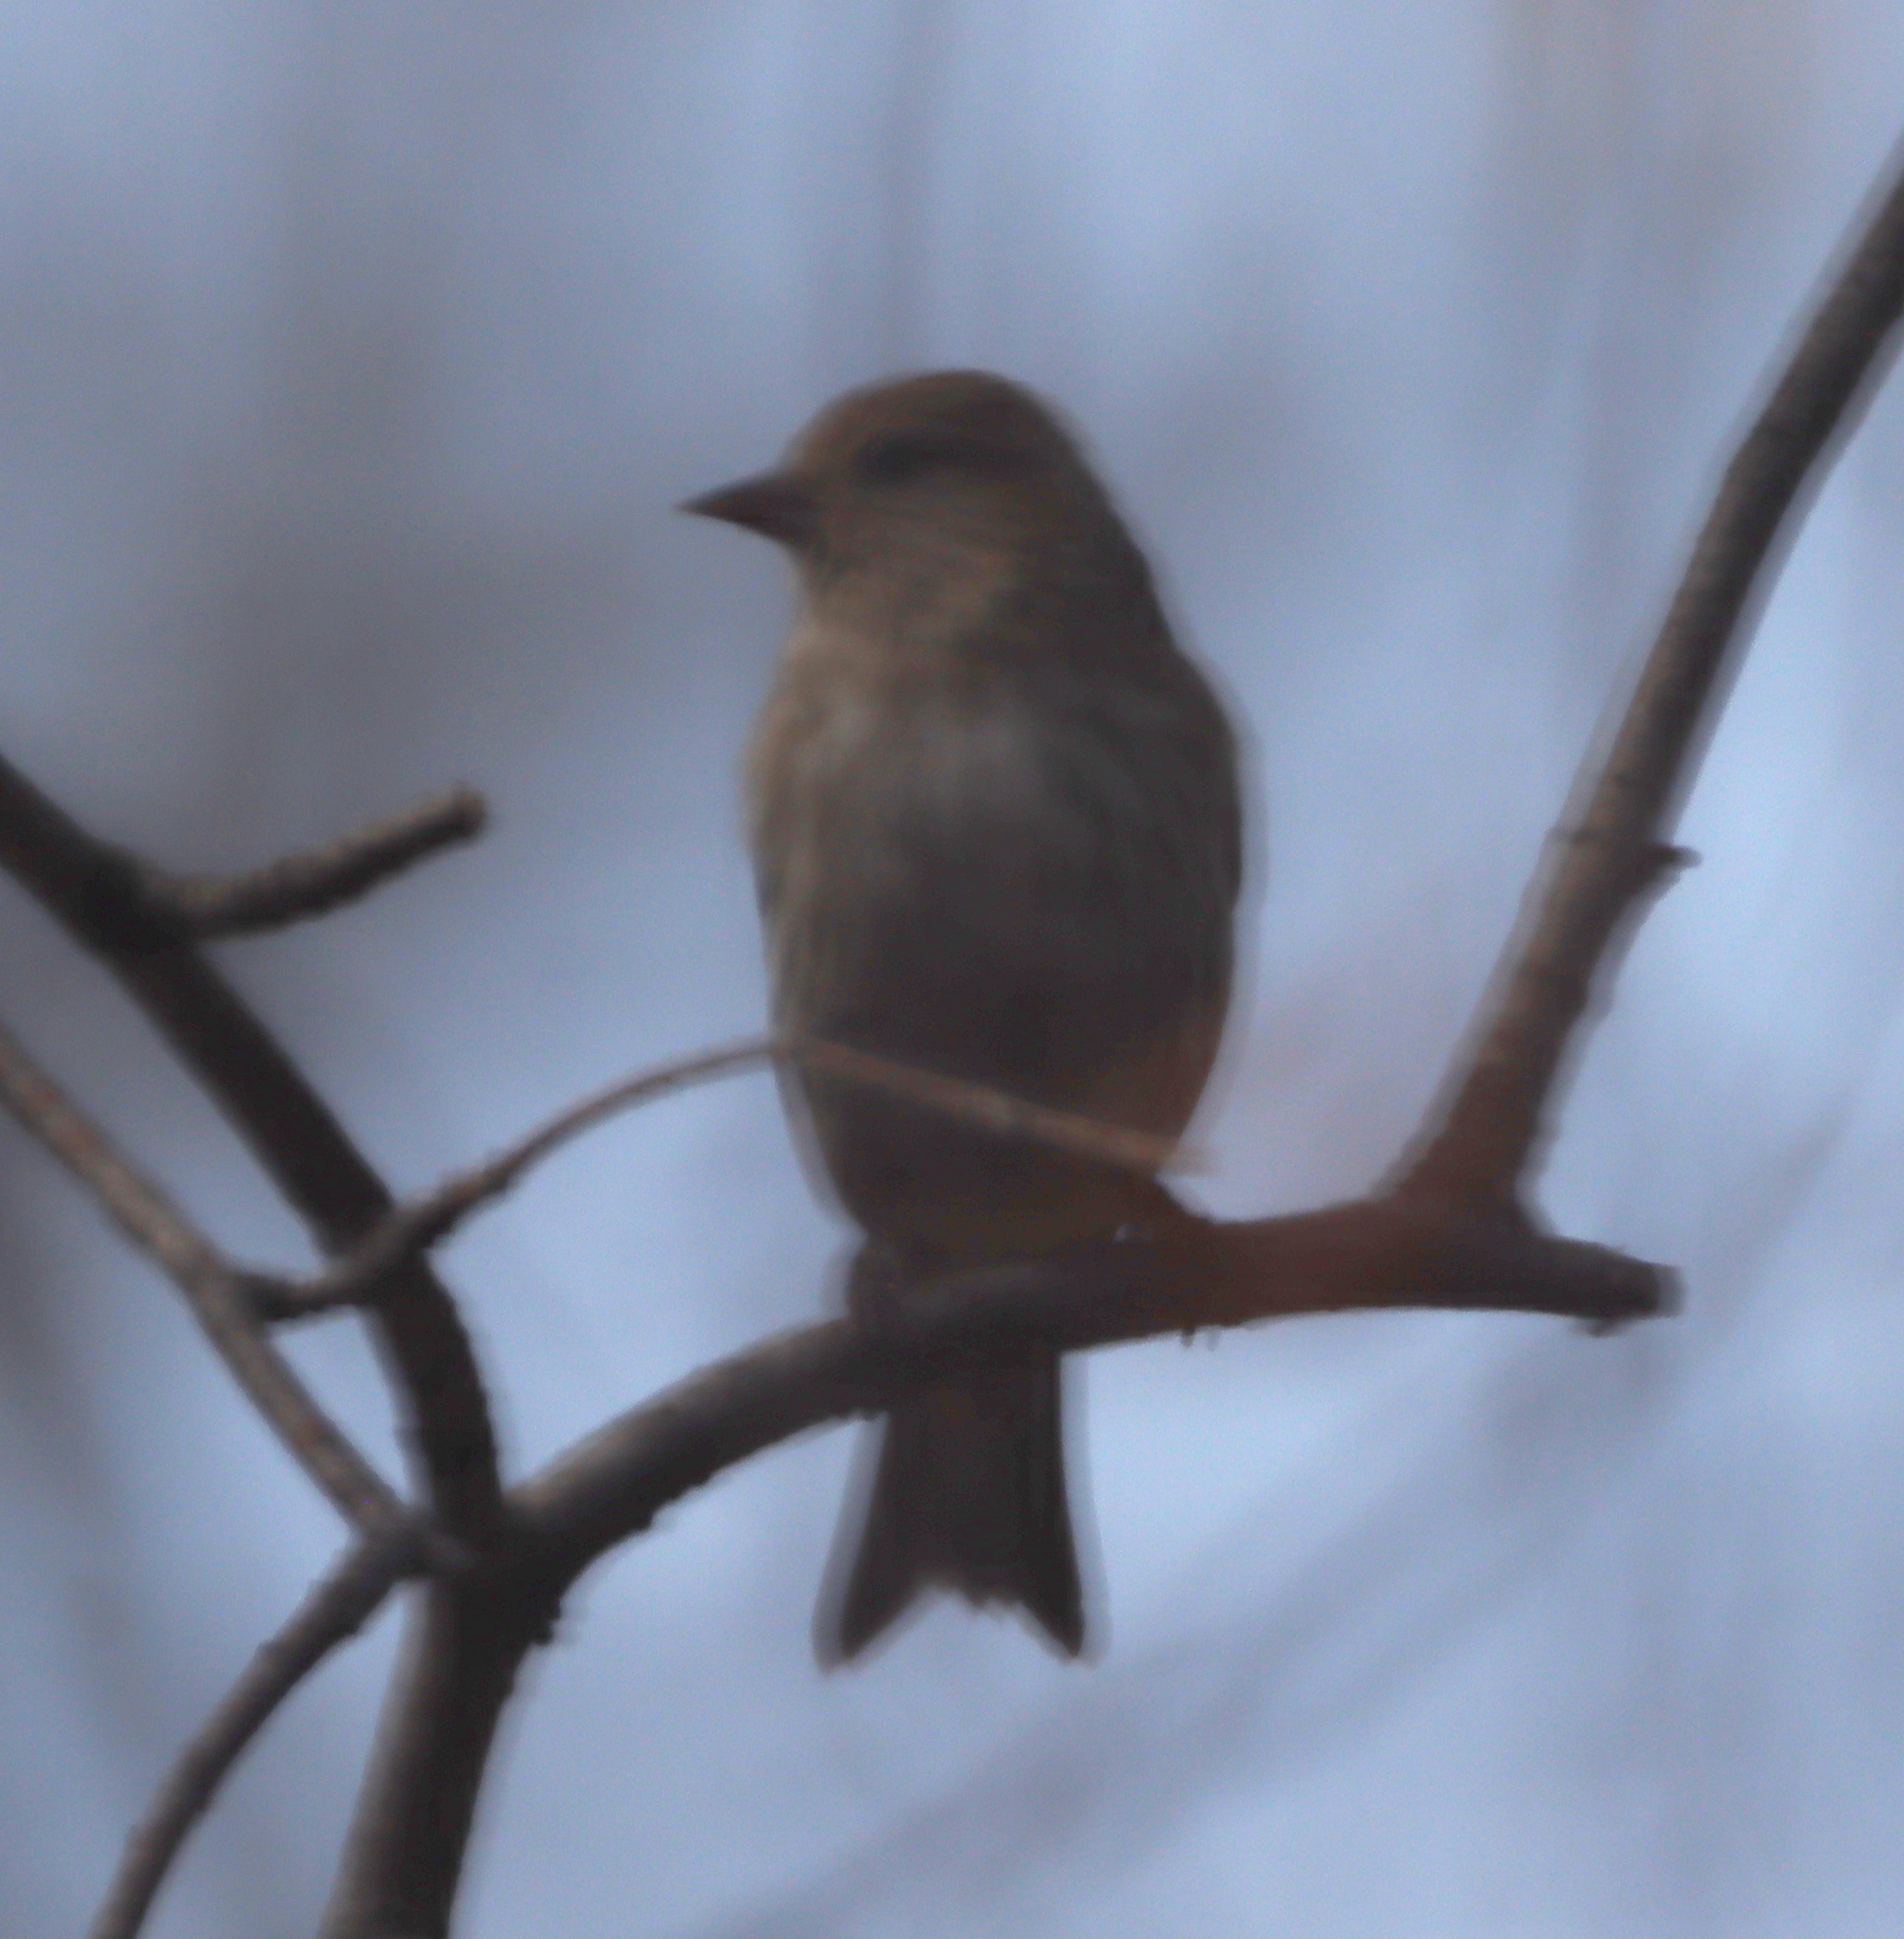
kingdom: Animalia
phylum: Chordata
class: Aves
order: Passeriformes
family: Fringillidae
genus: Spinus
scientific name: Spinus pinus
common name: Pine siskin
